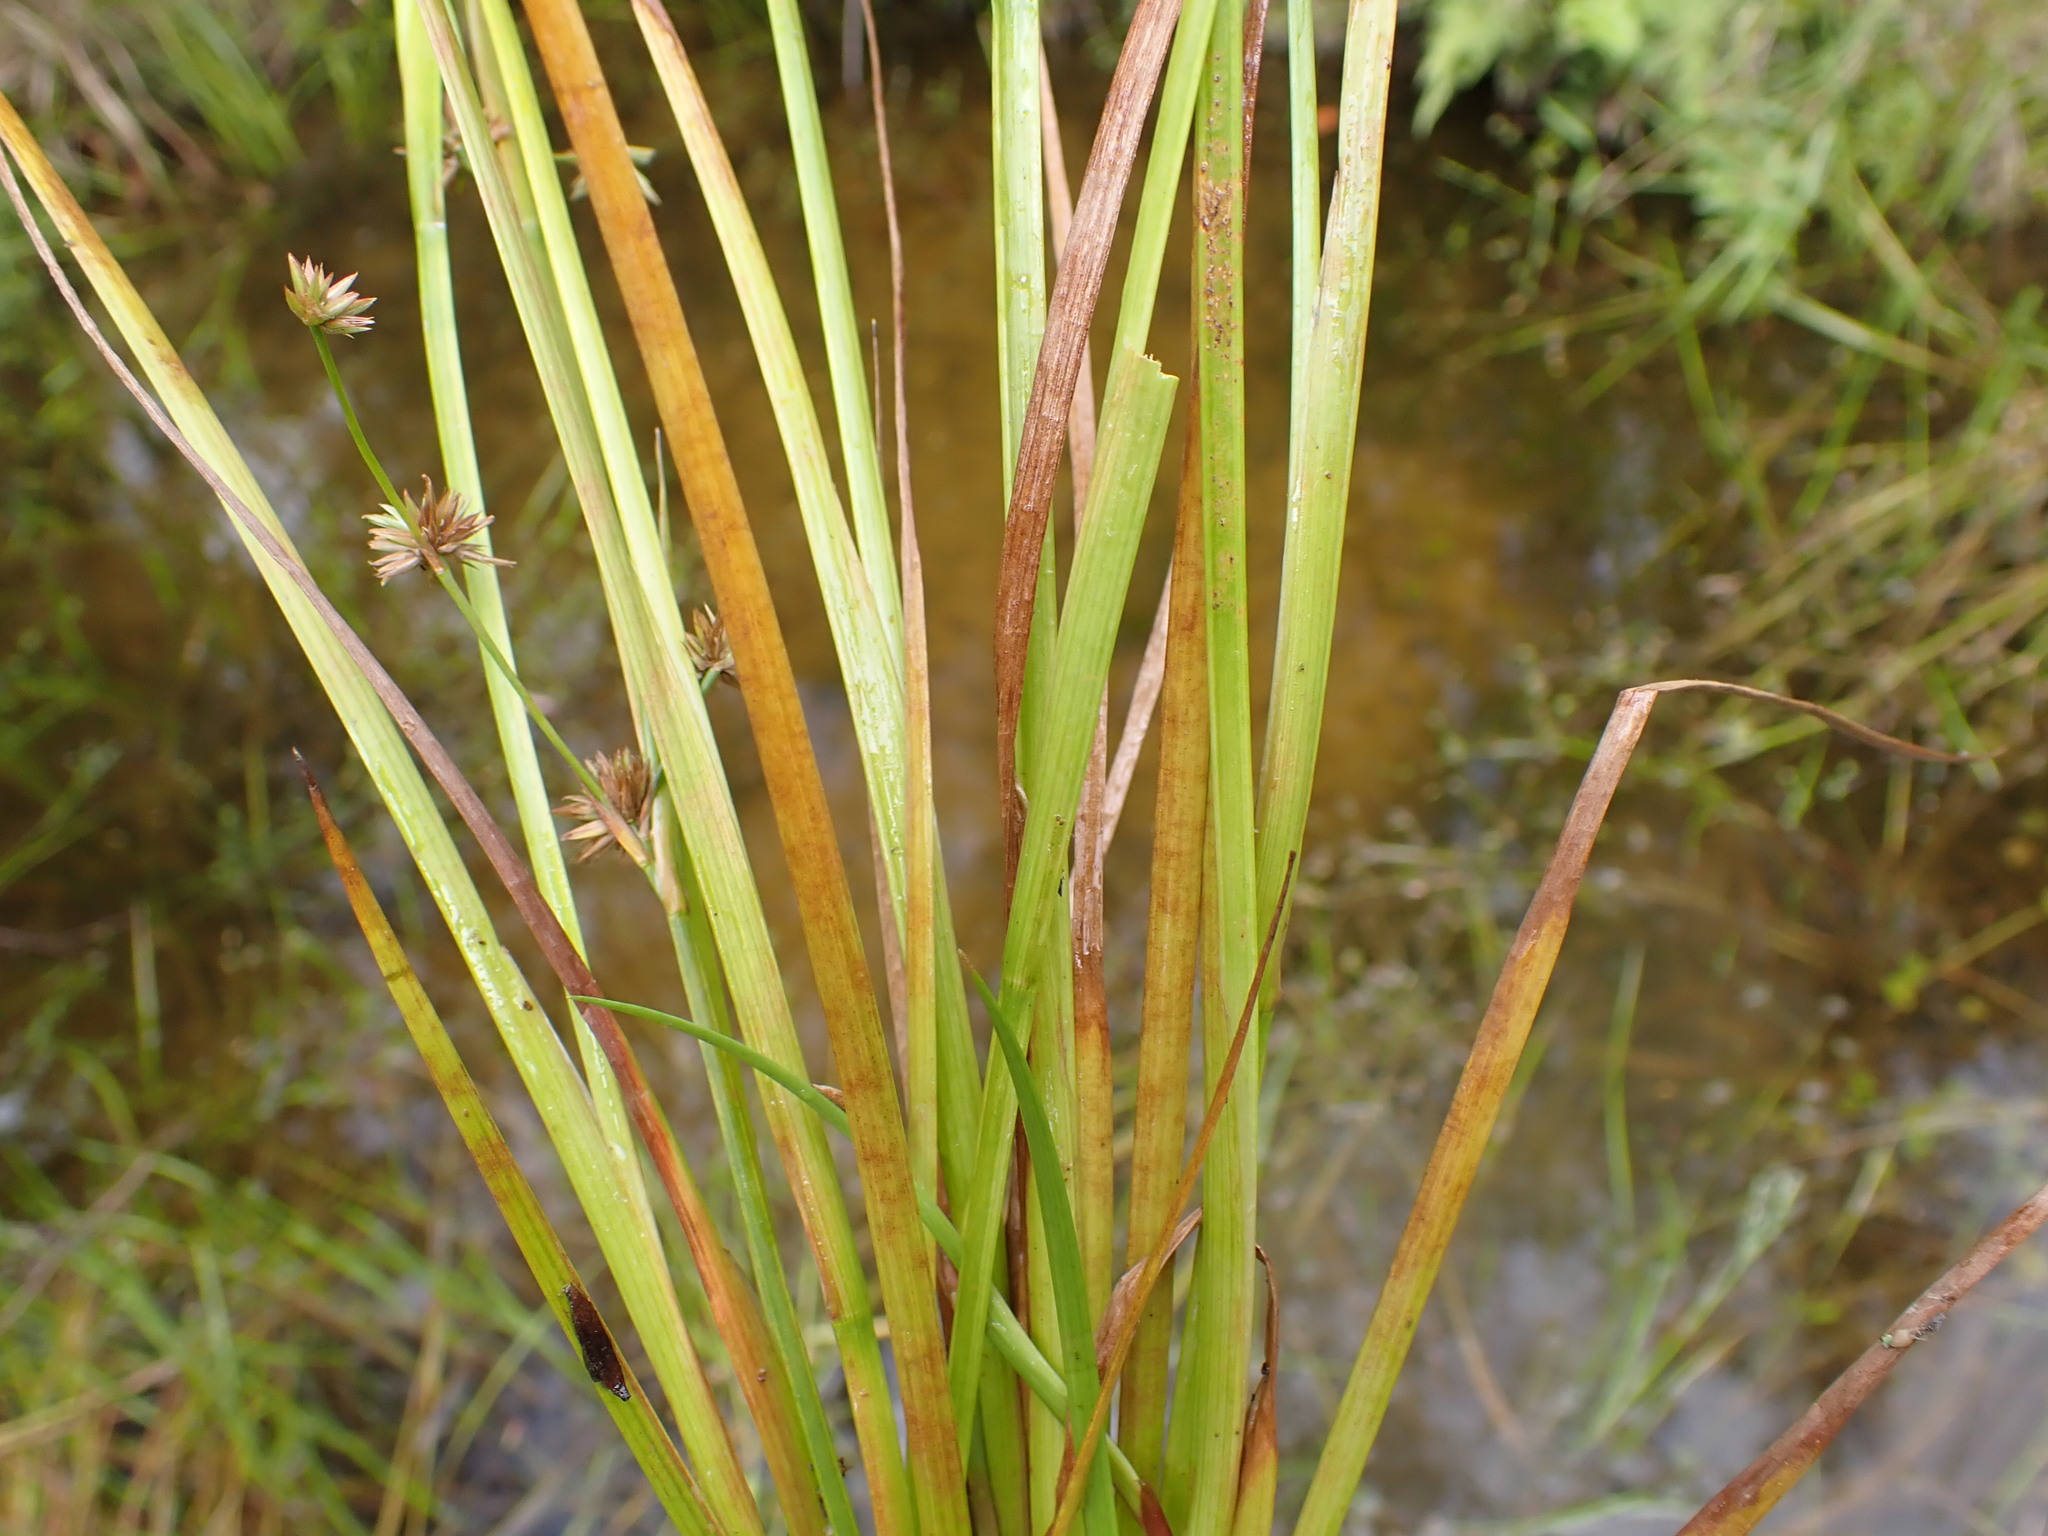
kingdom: Plantae
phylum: Tracheophyta
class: Liliopsida
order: Poales
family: Juncaceae
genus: Juncus
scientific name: Juncus prismatocarpus
